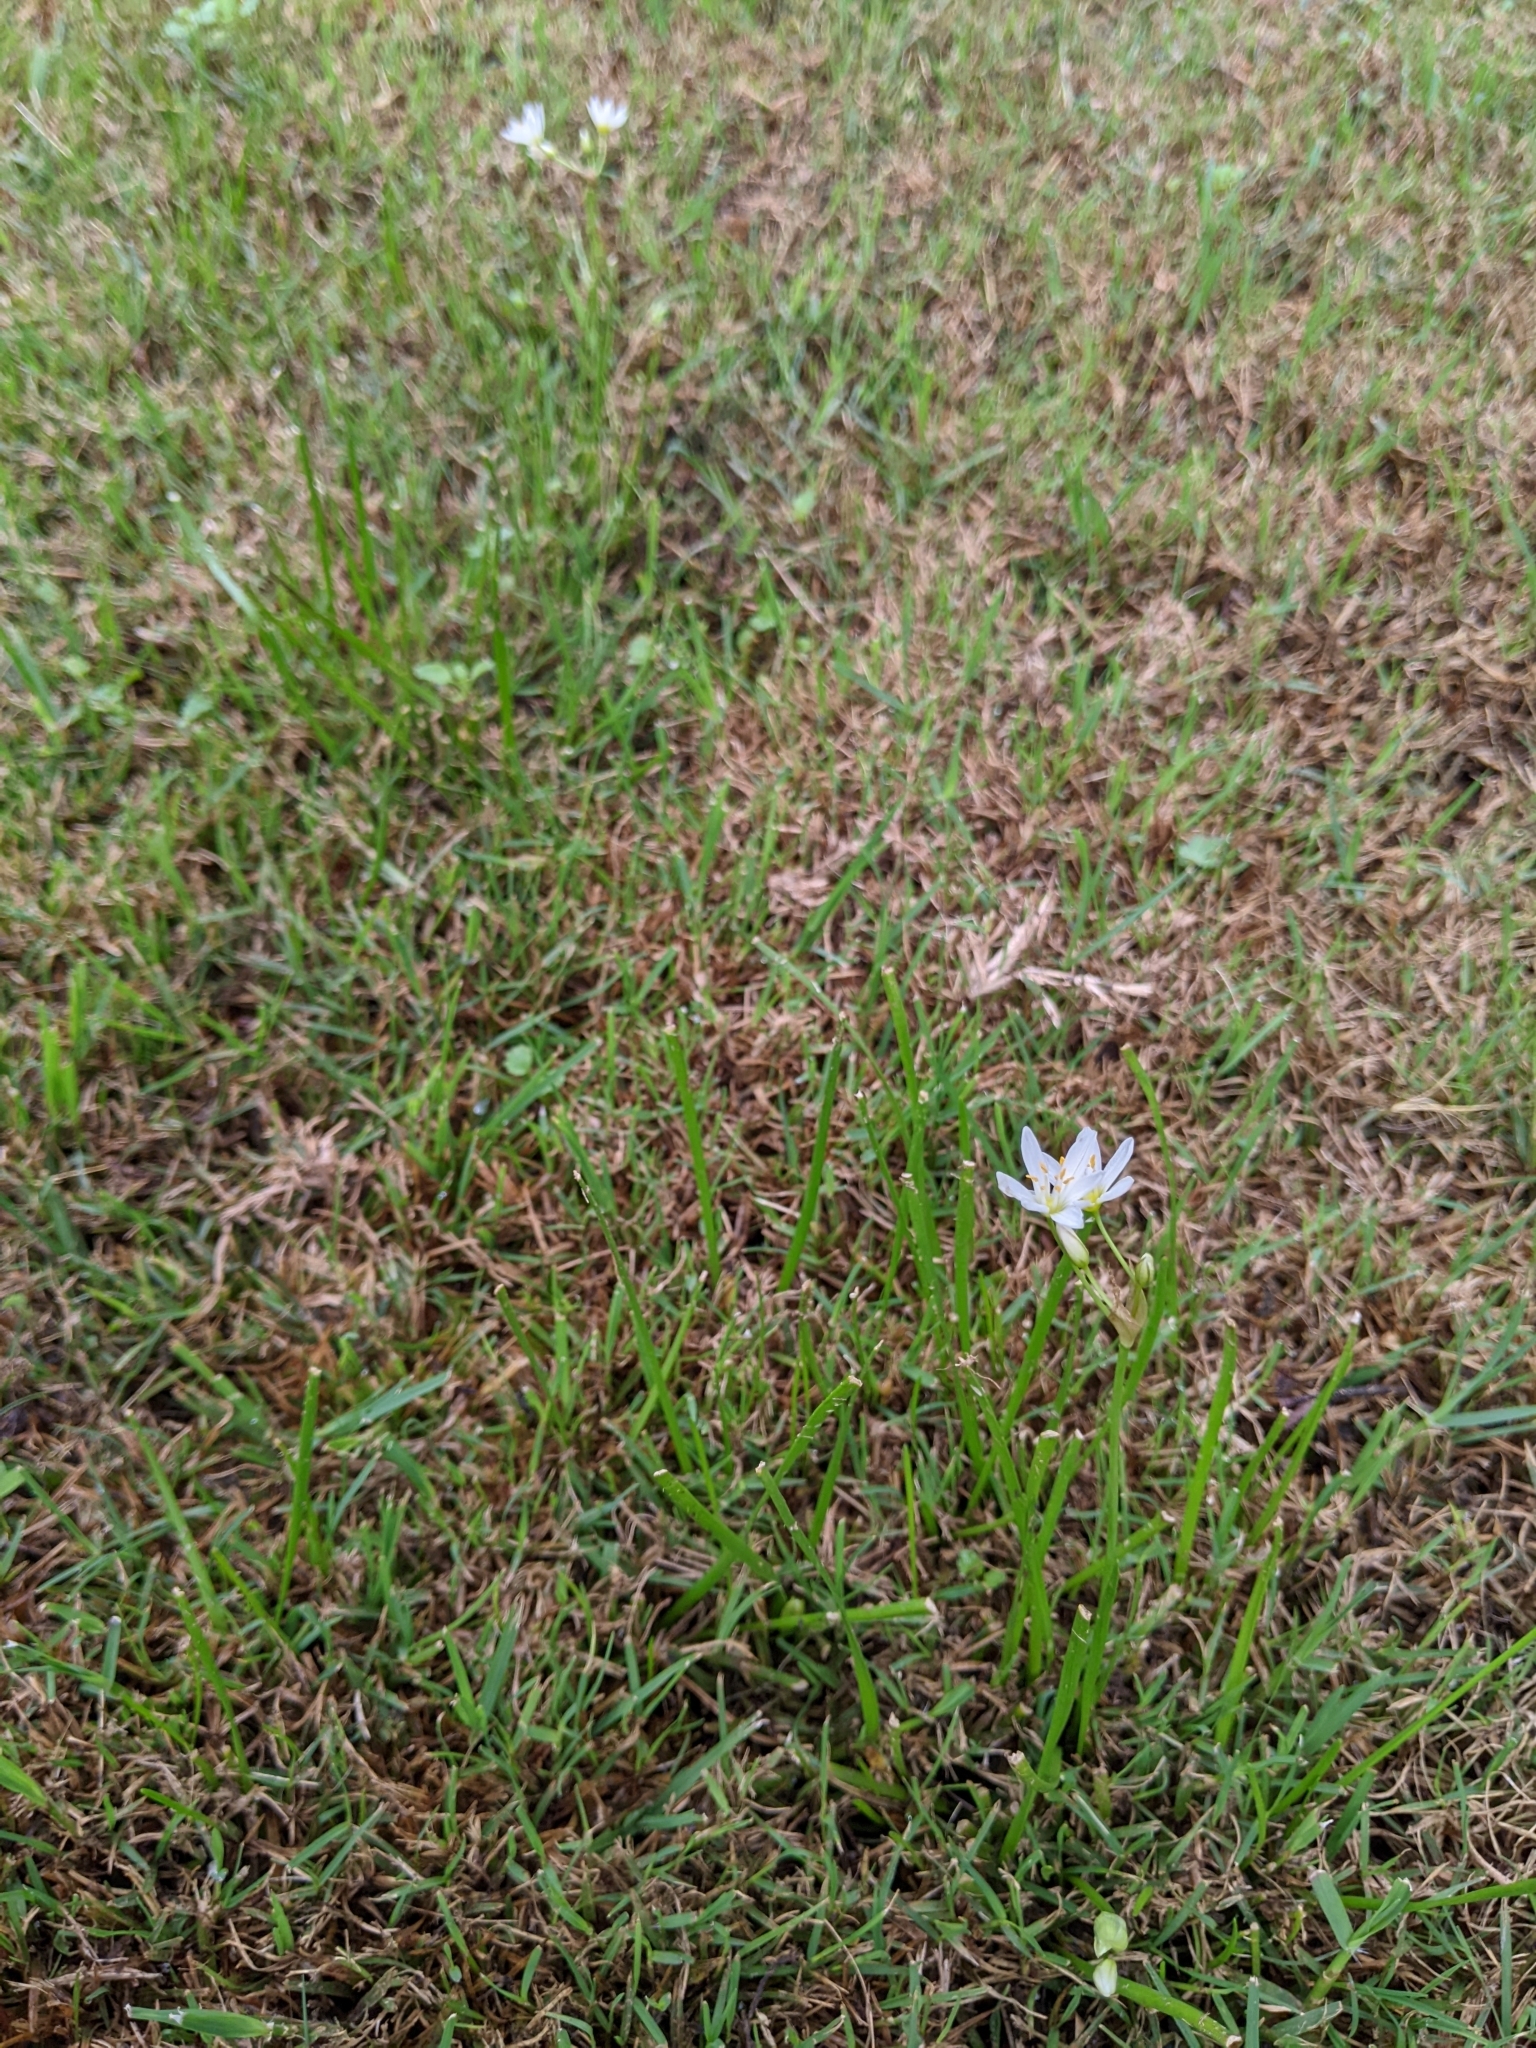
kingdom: Plantae
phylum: Tracheophyta
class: Liliopsida
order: Asparagales
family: Amaryllidaceae
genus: Nothoscordum
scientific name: Nothoscordum bivalve
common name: Crow-poison
